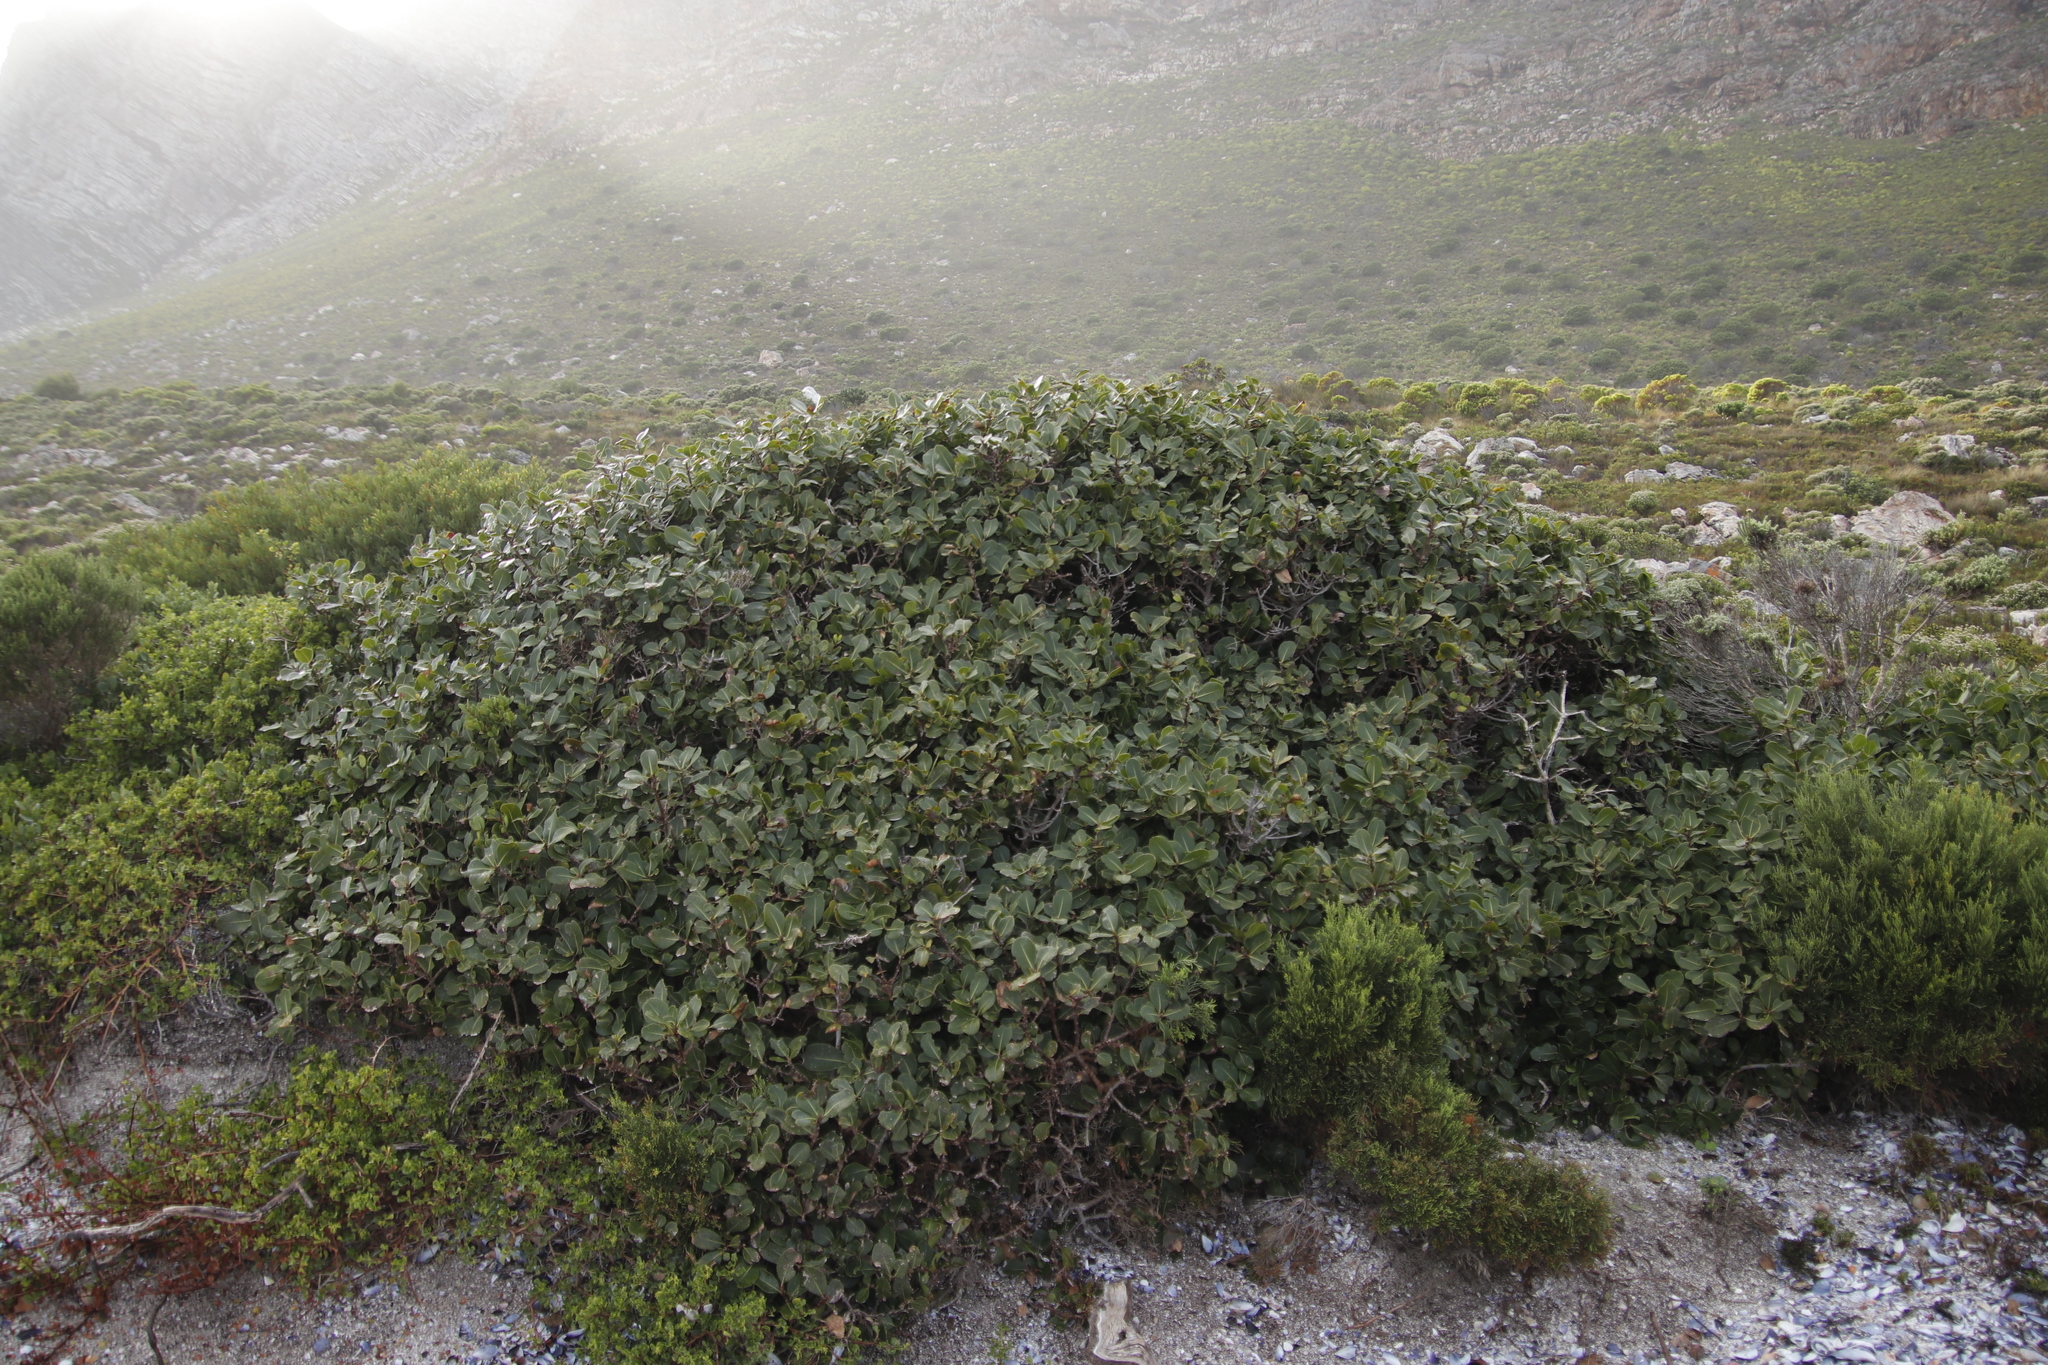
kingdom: Plantae
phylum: Tracheophyta
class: Magnoliopsida
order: Ericales
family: Sapotaceae
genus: Sideroxylon
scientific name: Sideroxylon inerme
